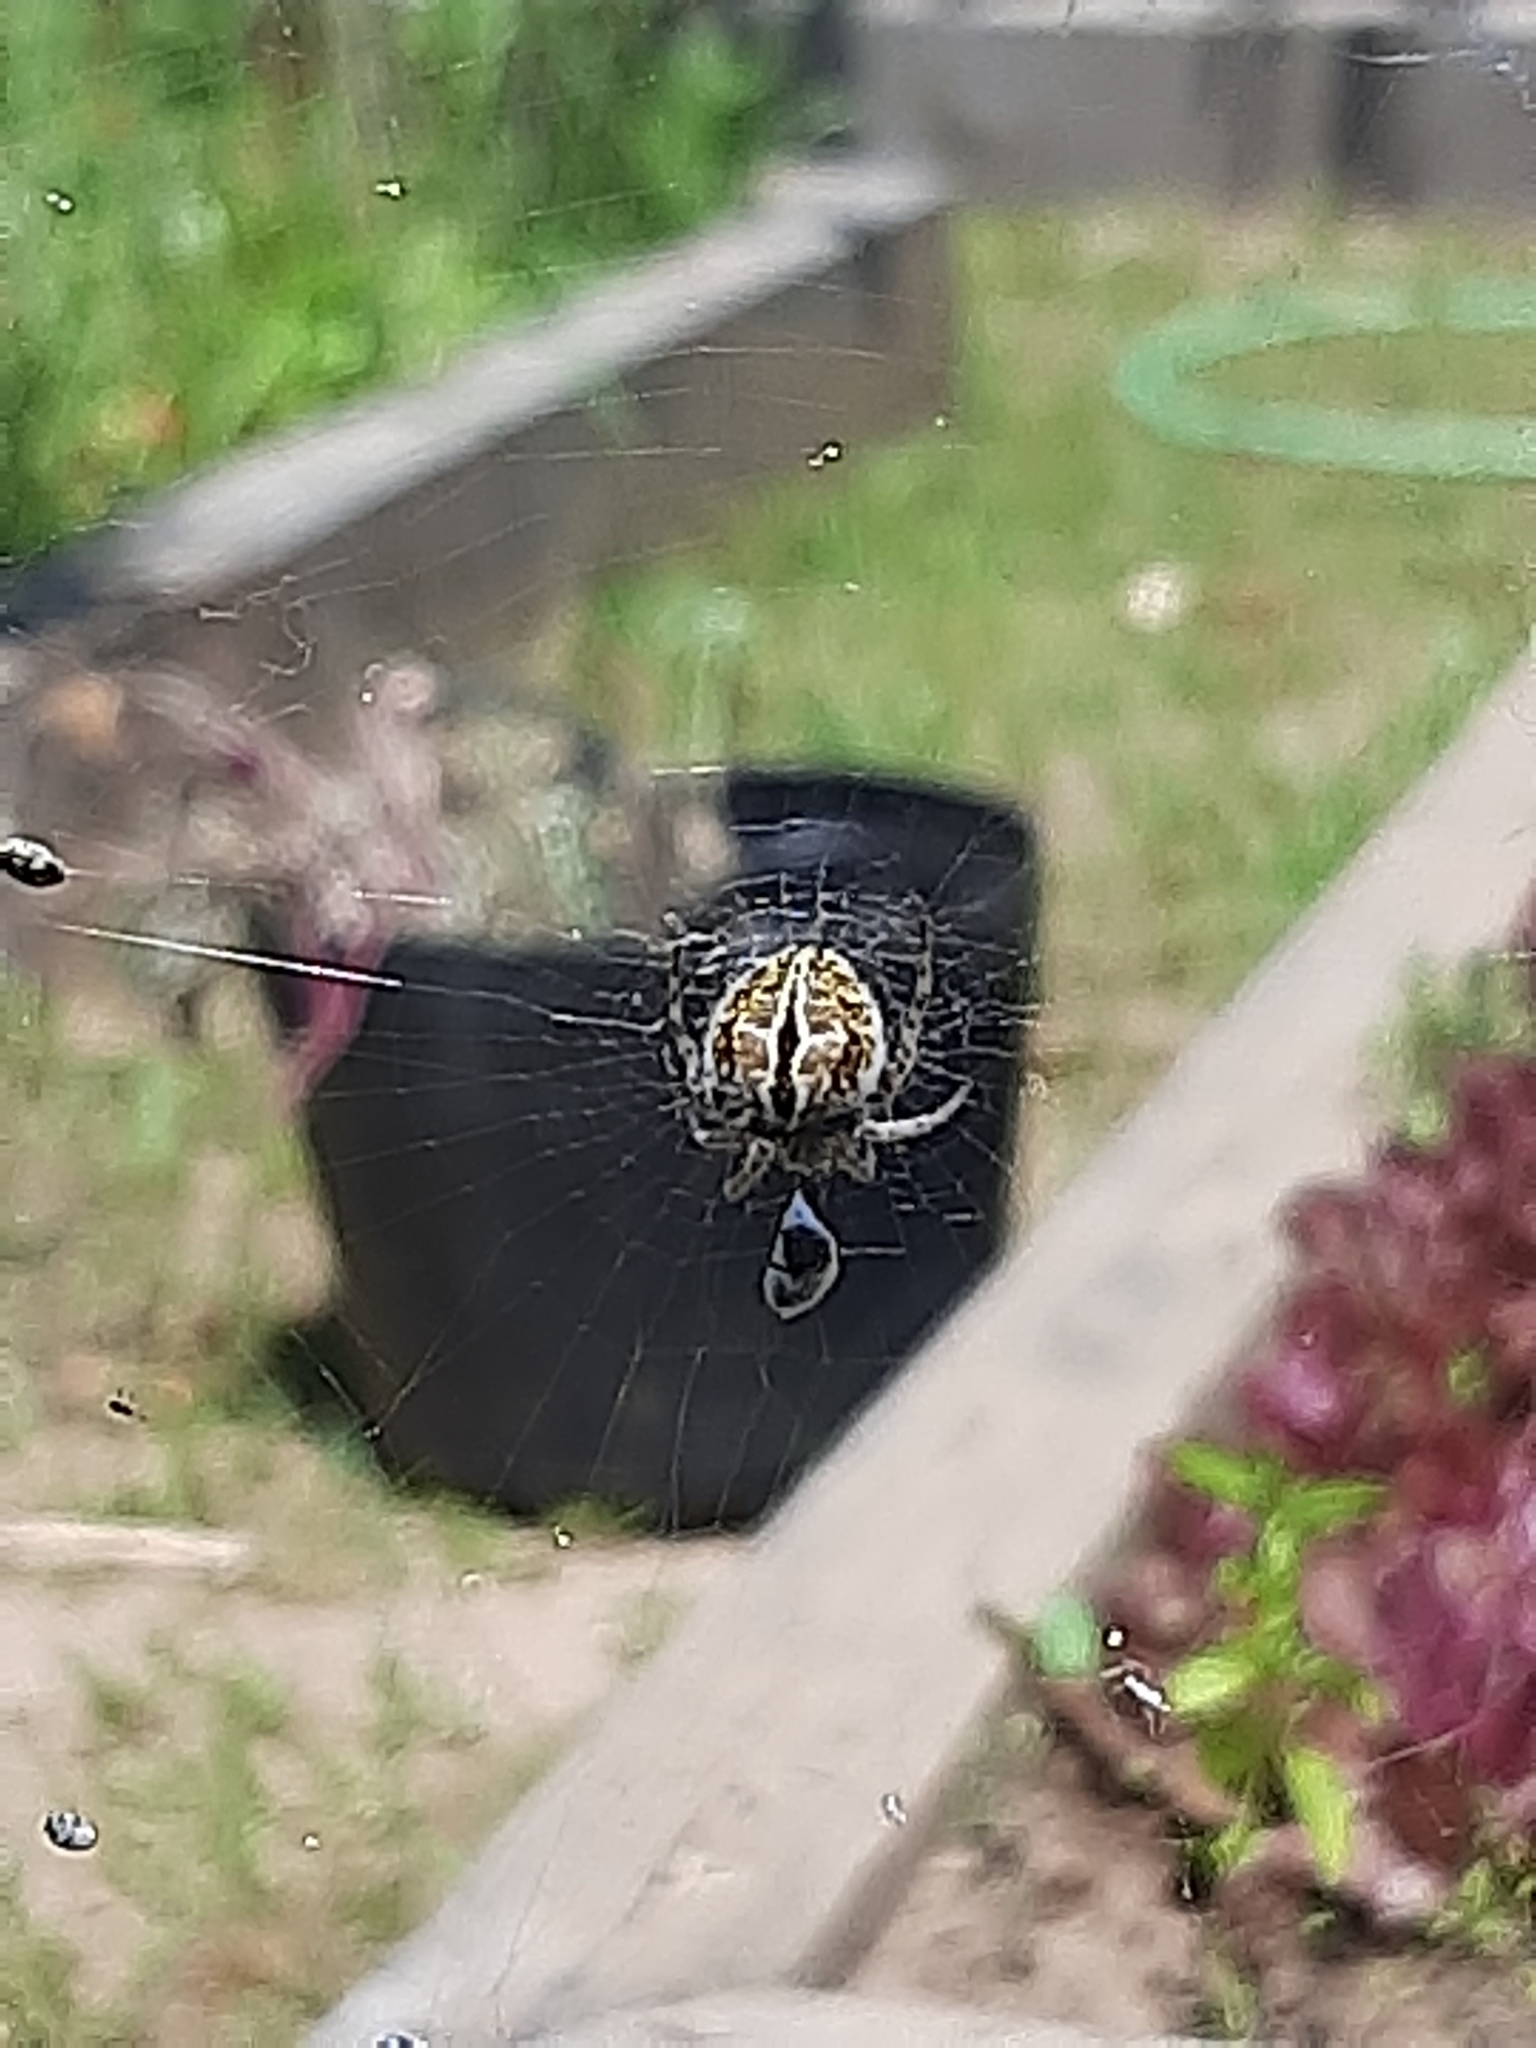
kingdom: Animalia
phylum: Arthropoda
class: Arachnida
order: Araneae
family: Araneidae
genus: Agalenatea
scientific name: Agalenatea redii
